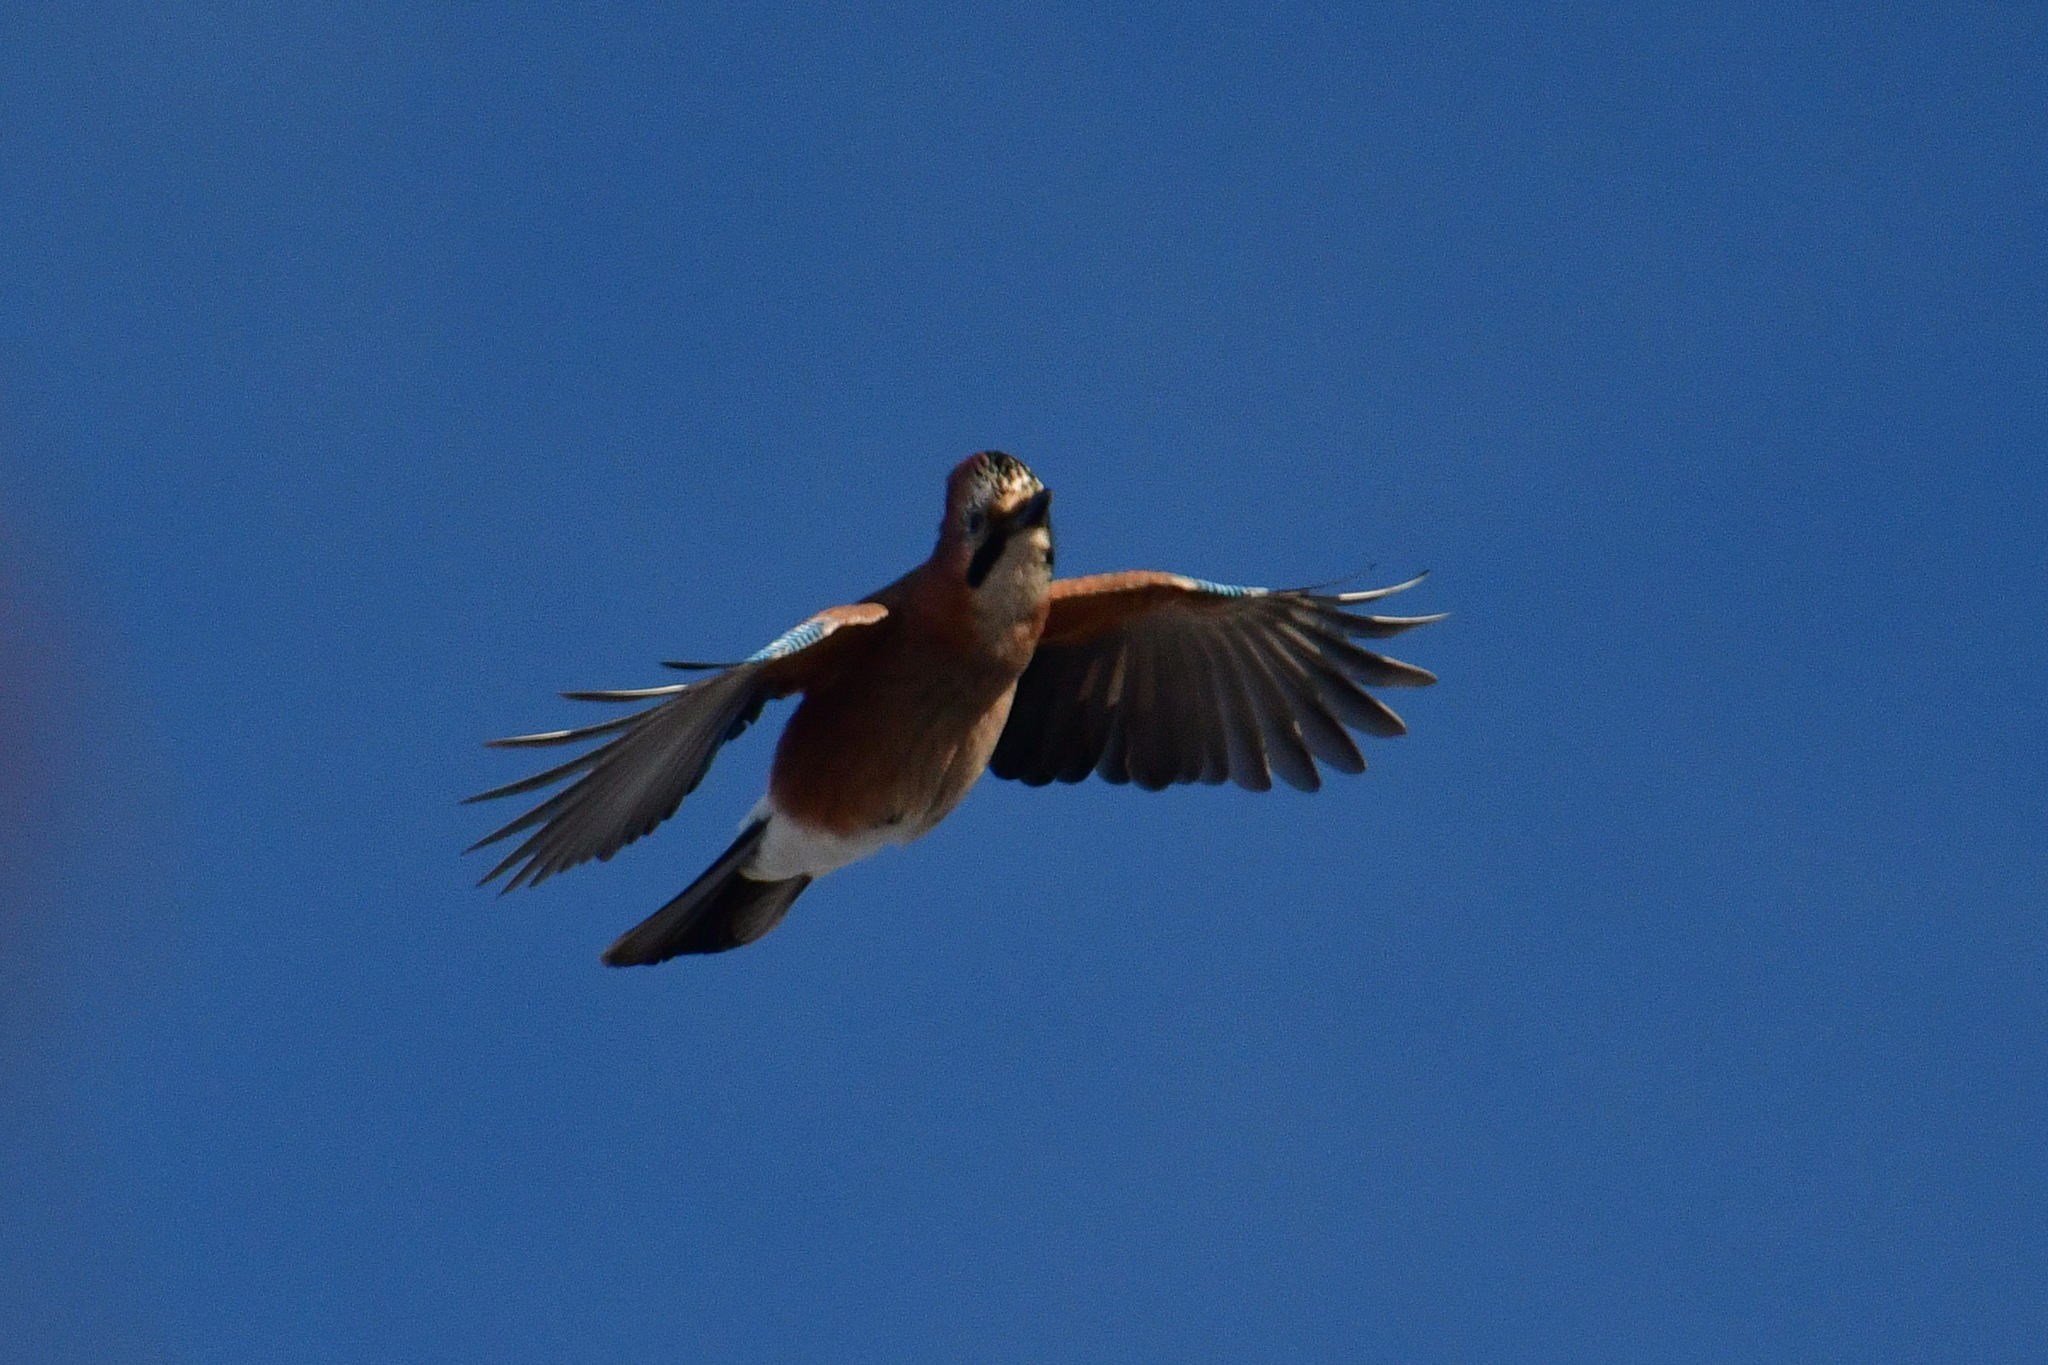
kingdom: Animalia
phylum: Chordata
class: Aves
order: Passeriformes
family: Corvidae
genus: Garrulus
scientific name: Garrulus glandarius
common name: Eurasian jay
